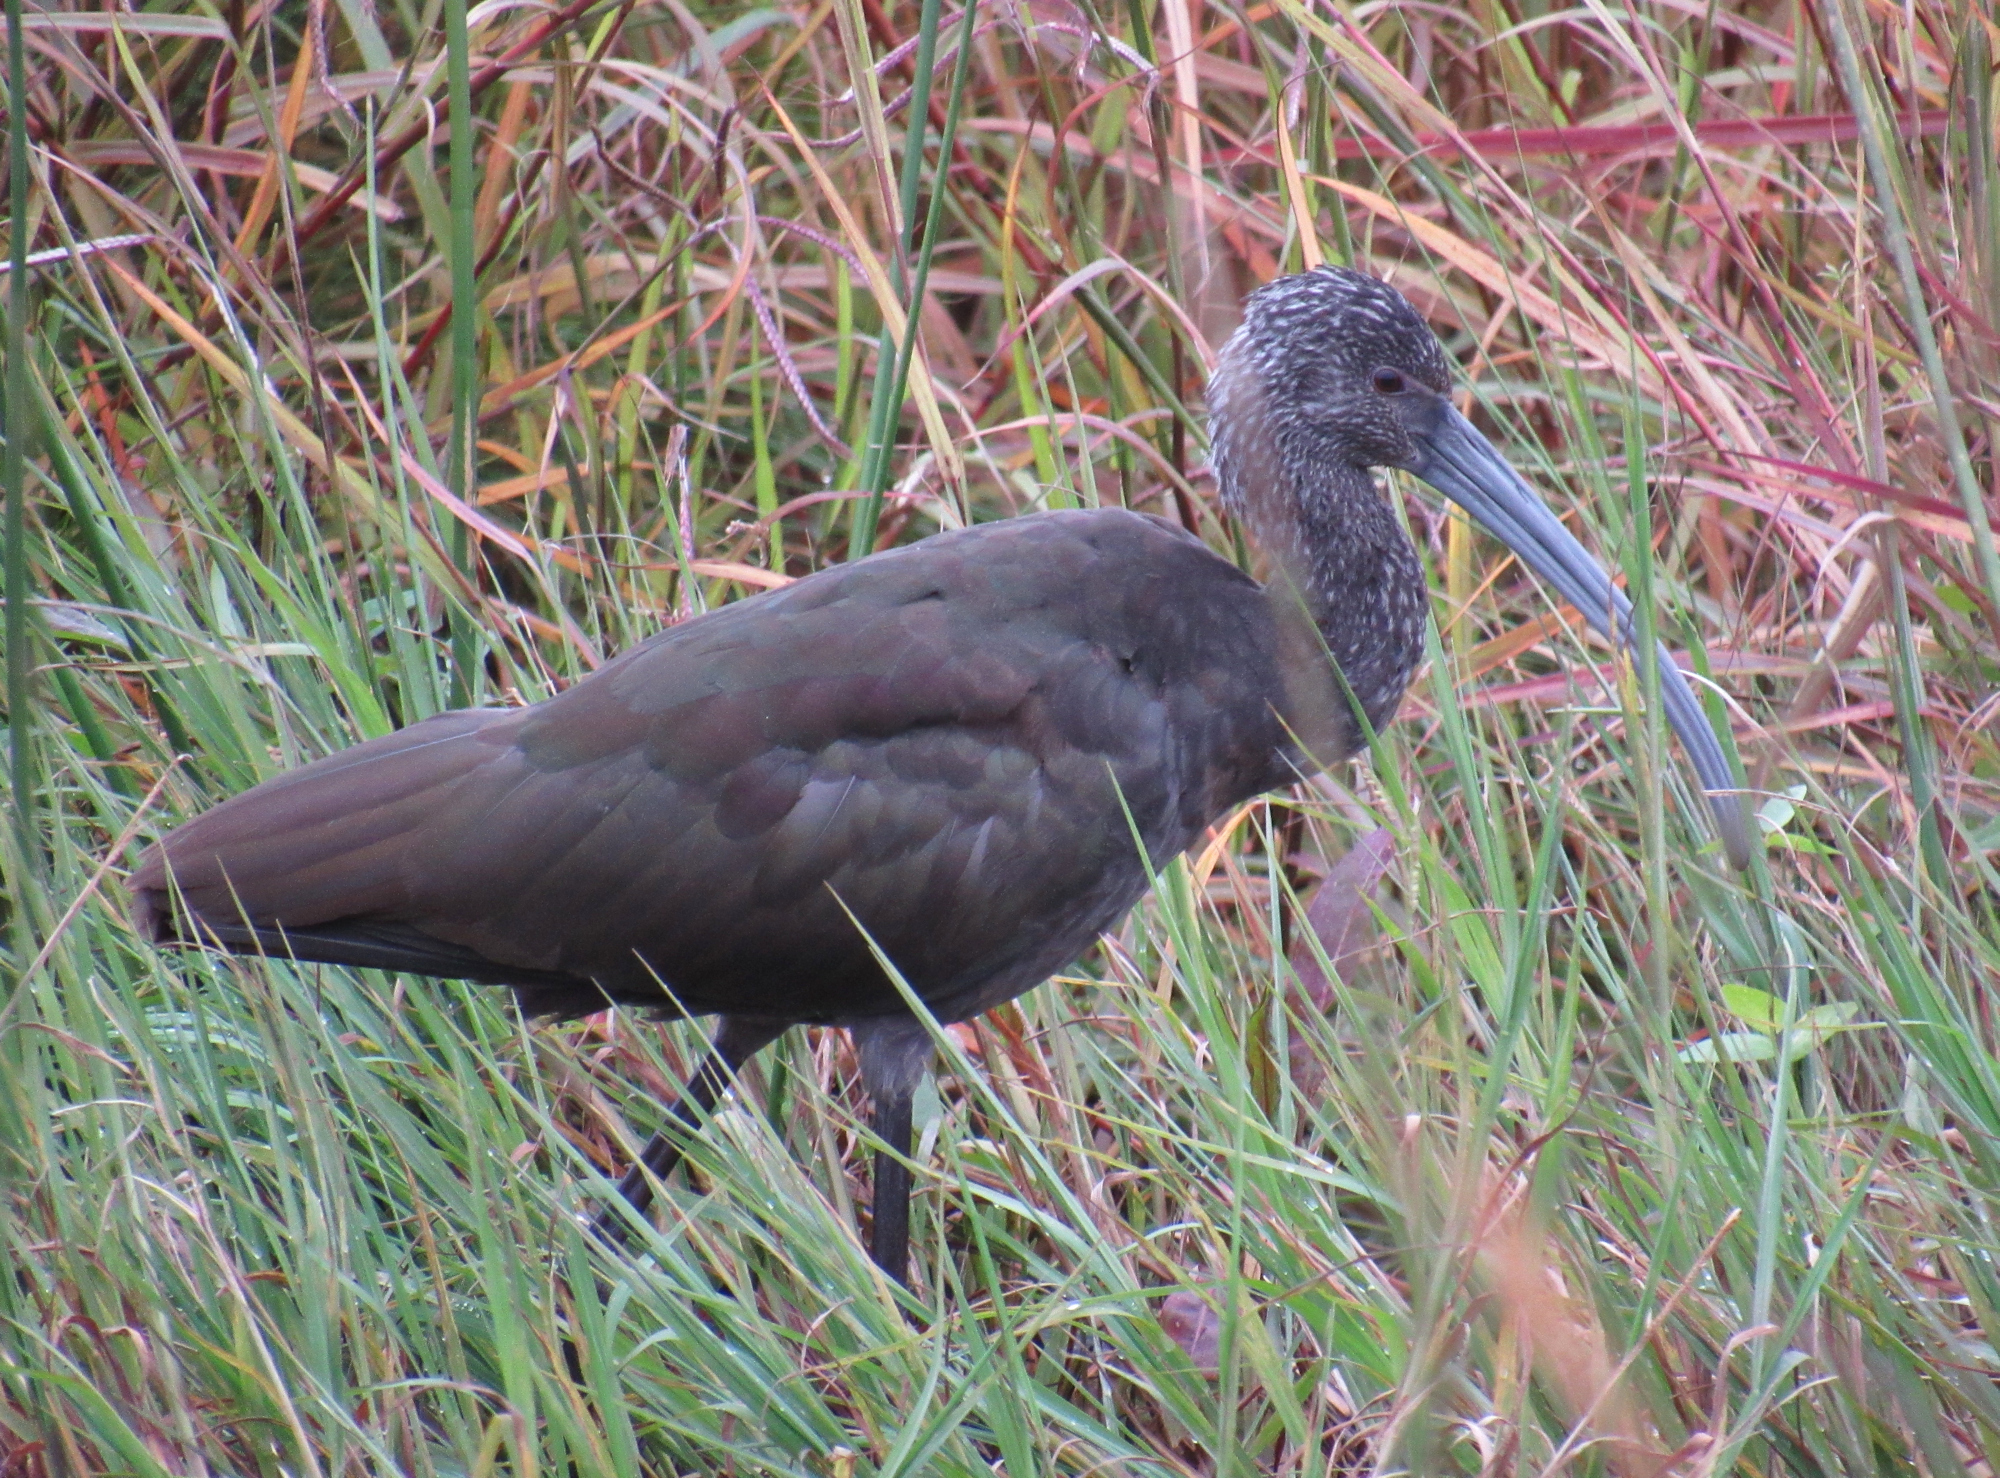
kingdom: Animalia
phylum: Chordata
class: Aves
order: Pelecaniformes
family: Threskiornithidae
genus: Plegadis
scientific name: Plegadis chihi
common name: White-faced ibis
